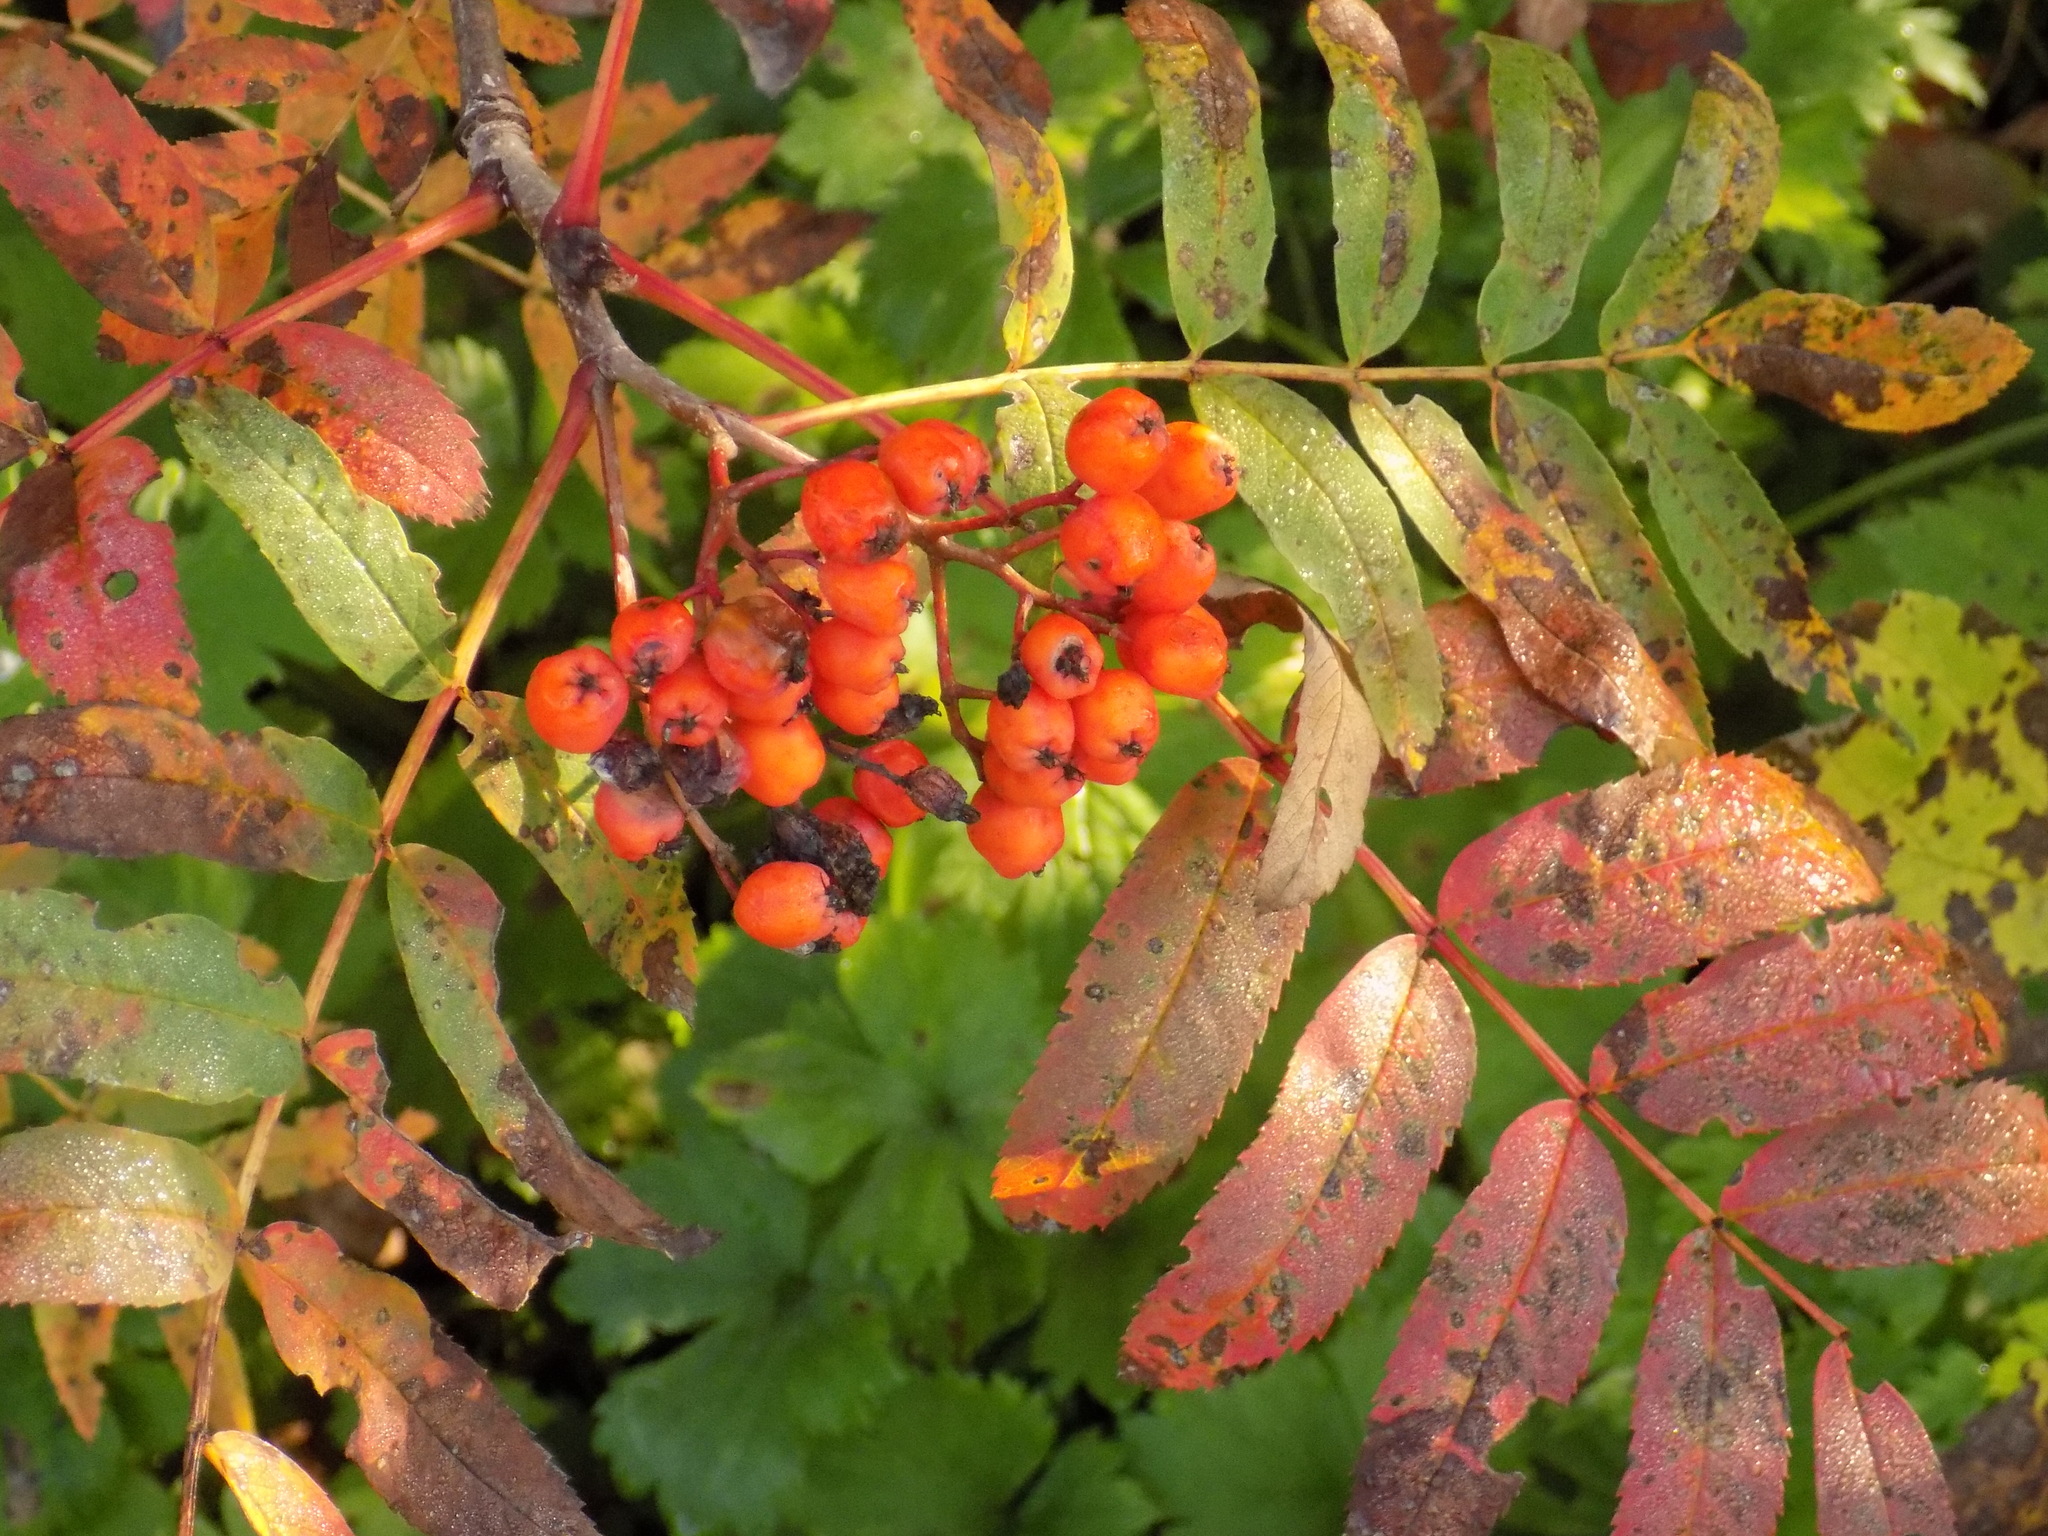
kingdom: Plantae
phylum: Tracheophyta
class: Magnoliopsida
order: Rosales
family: Rosaceae
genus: Sorbus
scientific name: Sorbus aucuparia
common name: Rowan
